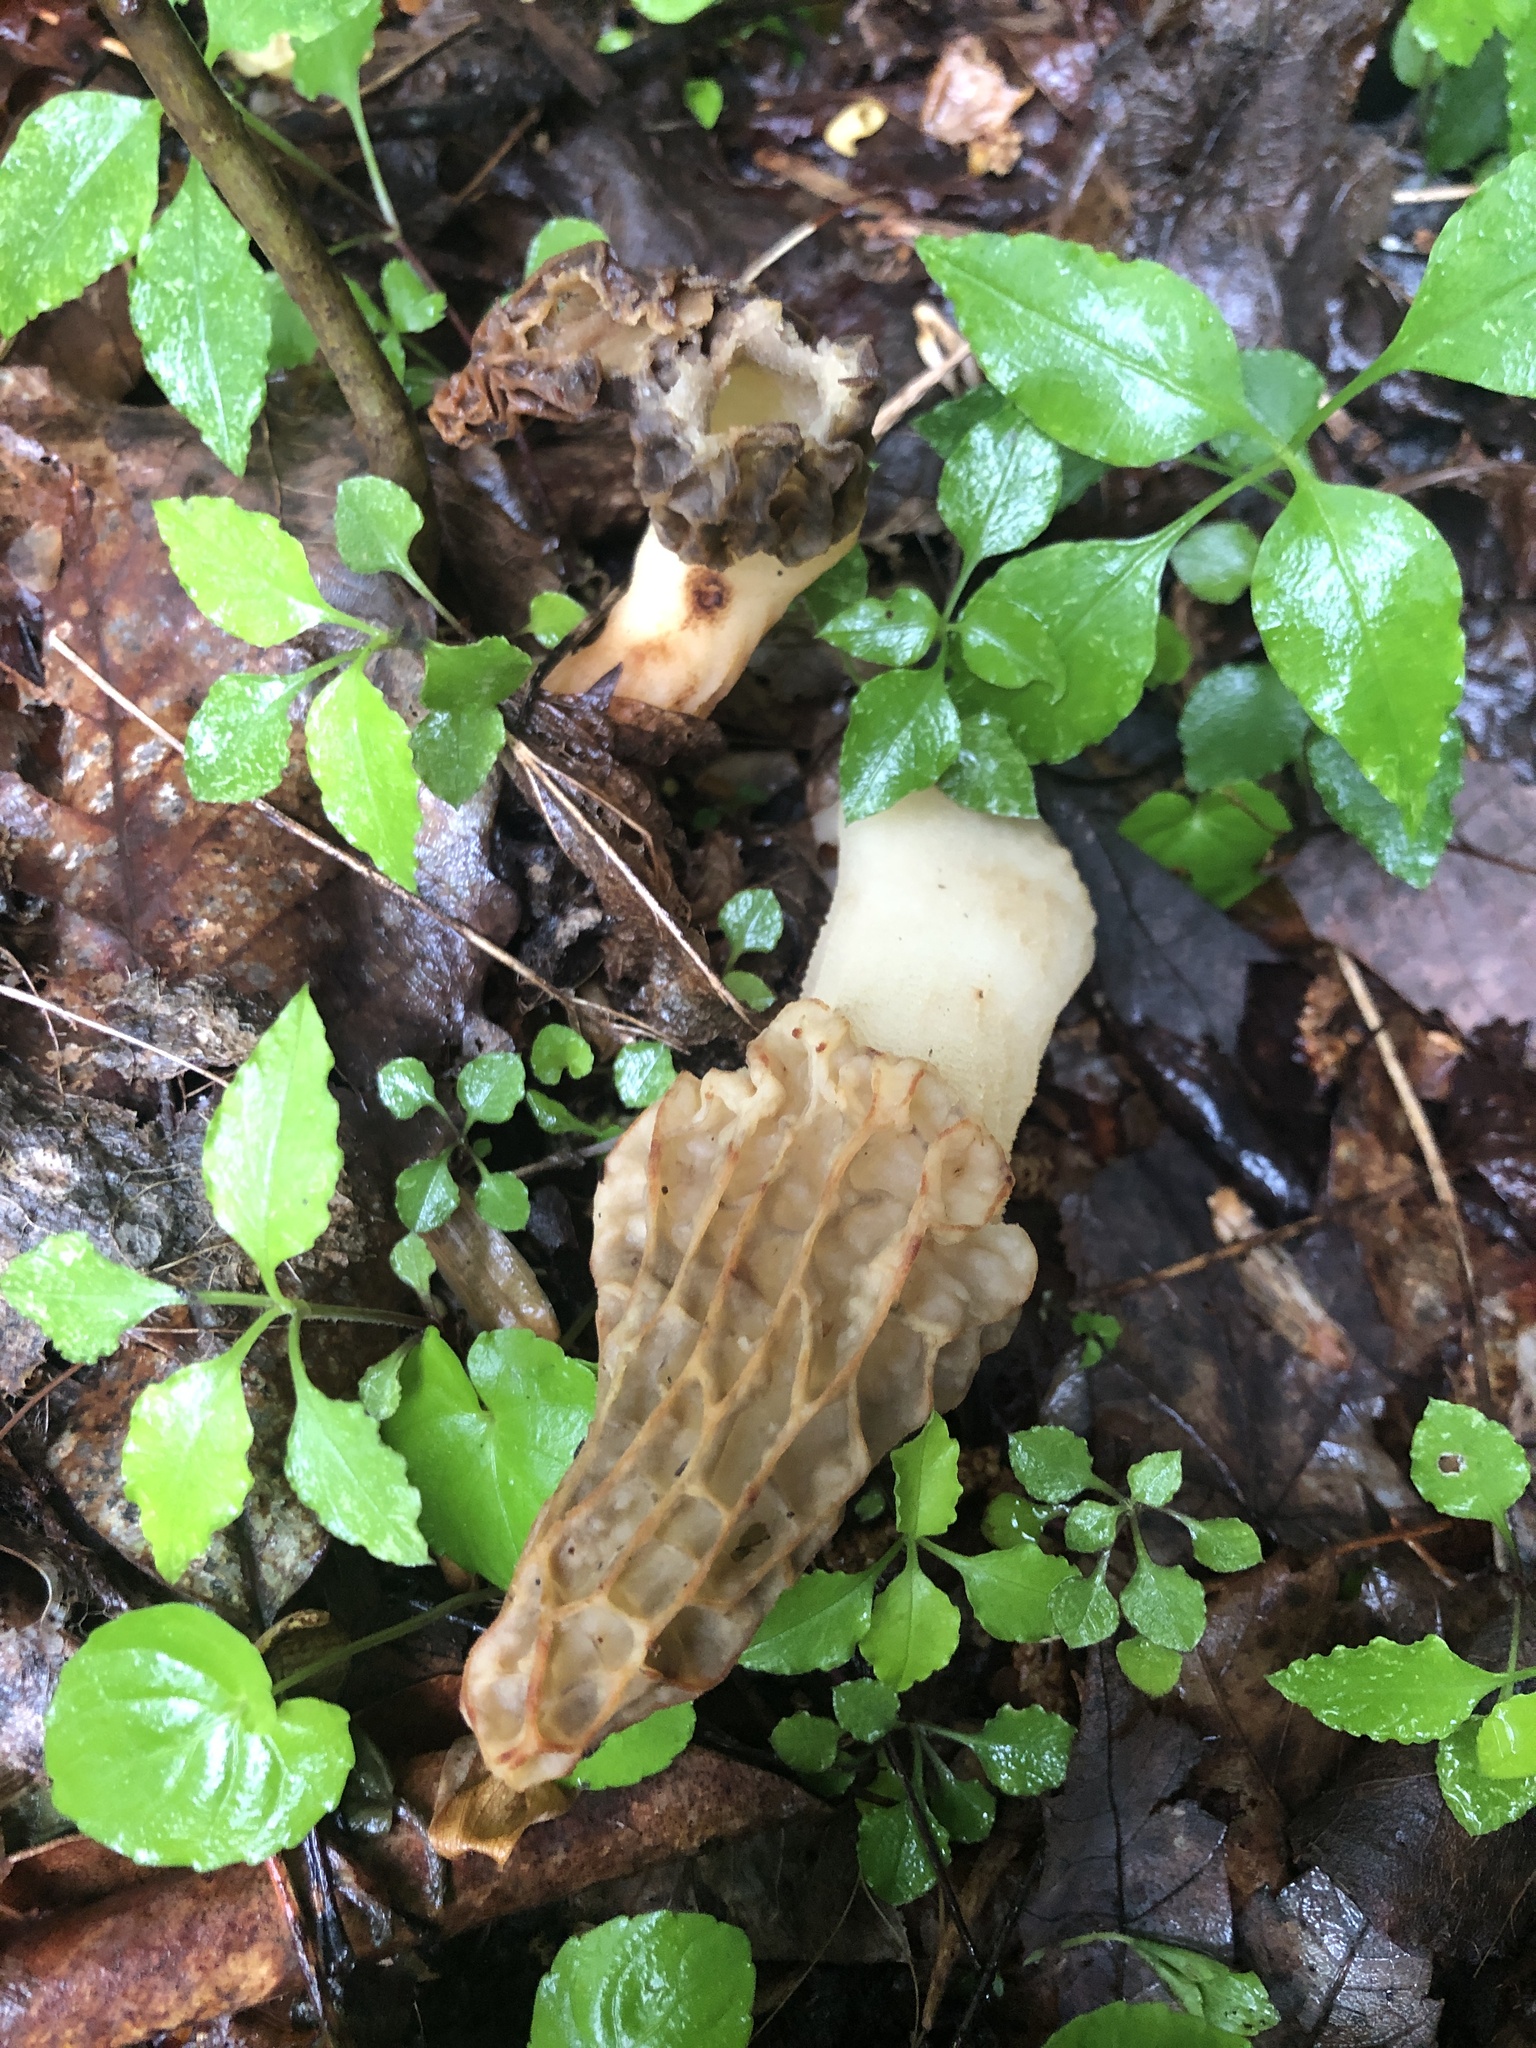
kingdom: Fungi
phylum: Ascomycota
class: Pezizomycetes
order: Pezizales
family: Morchellaceae
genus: Morchella
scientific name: Morchella americana
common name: White morel
